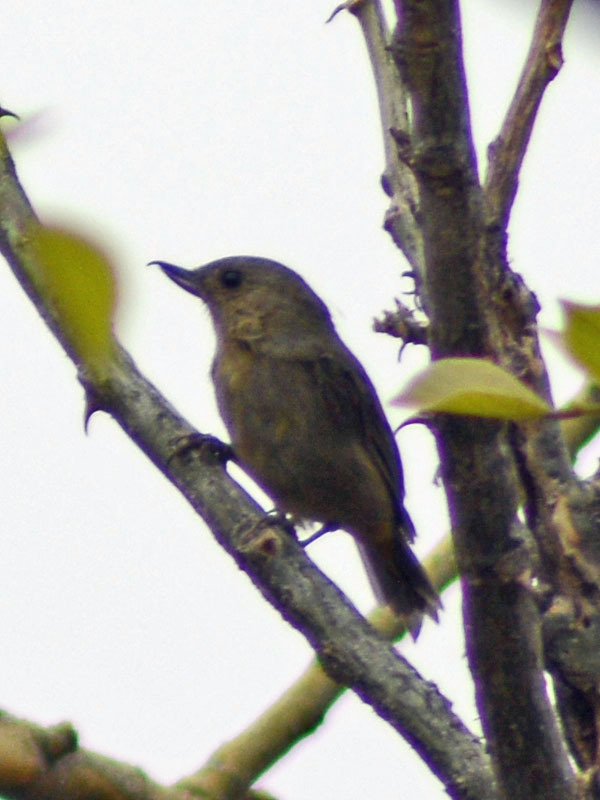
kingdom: Animalia
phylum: Chordata
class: Aves
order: Passeriformes
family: Thraupidae
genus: Diglossa
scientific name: Diglossa baritula
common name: Cinnamon-bellied flowerpiercer
